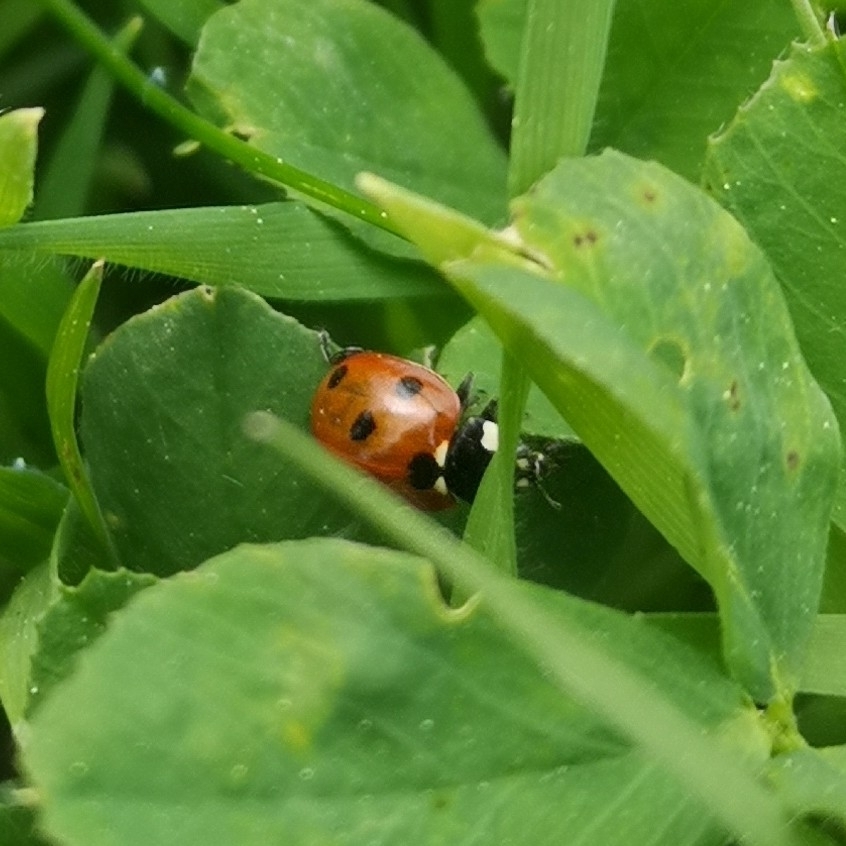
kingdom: Animalia
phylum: Arthropoda
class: Insecta
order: Coleoptera
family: Coccinellidae
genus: Coccinella
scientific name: Coccinella septempunctata
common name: Sevenspotted lady beetle
